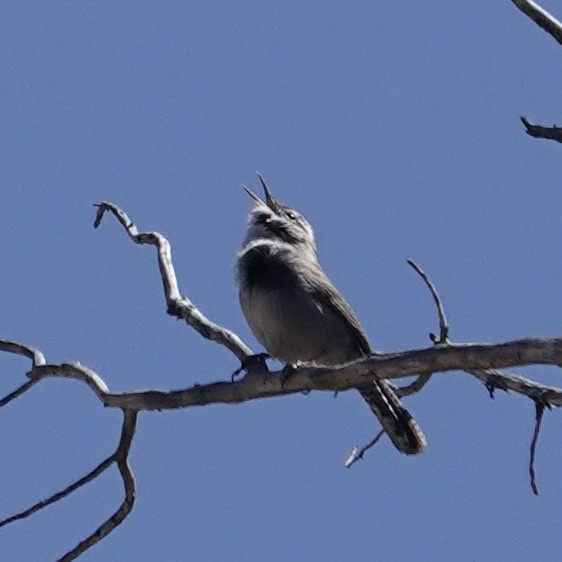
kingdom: Animalia
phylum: Chordata
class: Aves
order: Passeriformes
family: Troglodytidae
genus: Thryomanes
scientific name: Thryomanes bewickii
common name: Bewick's wren
